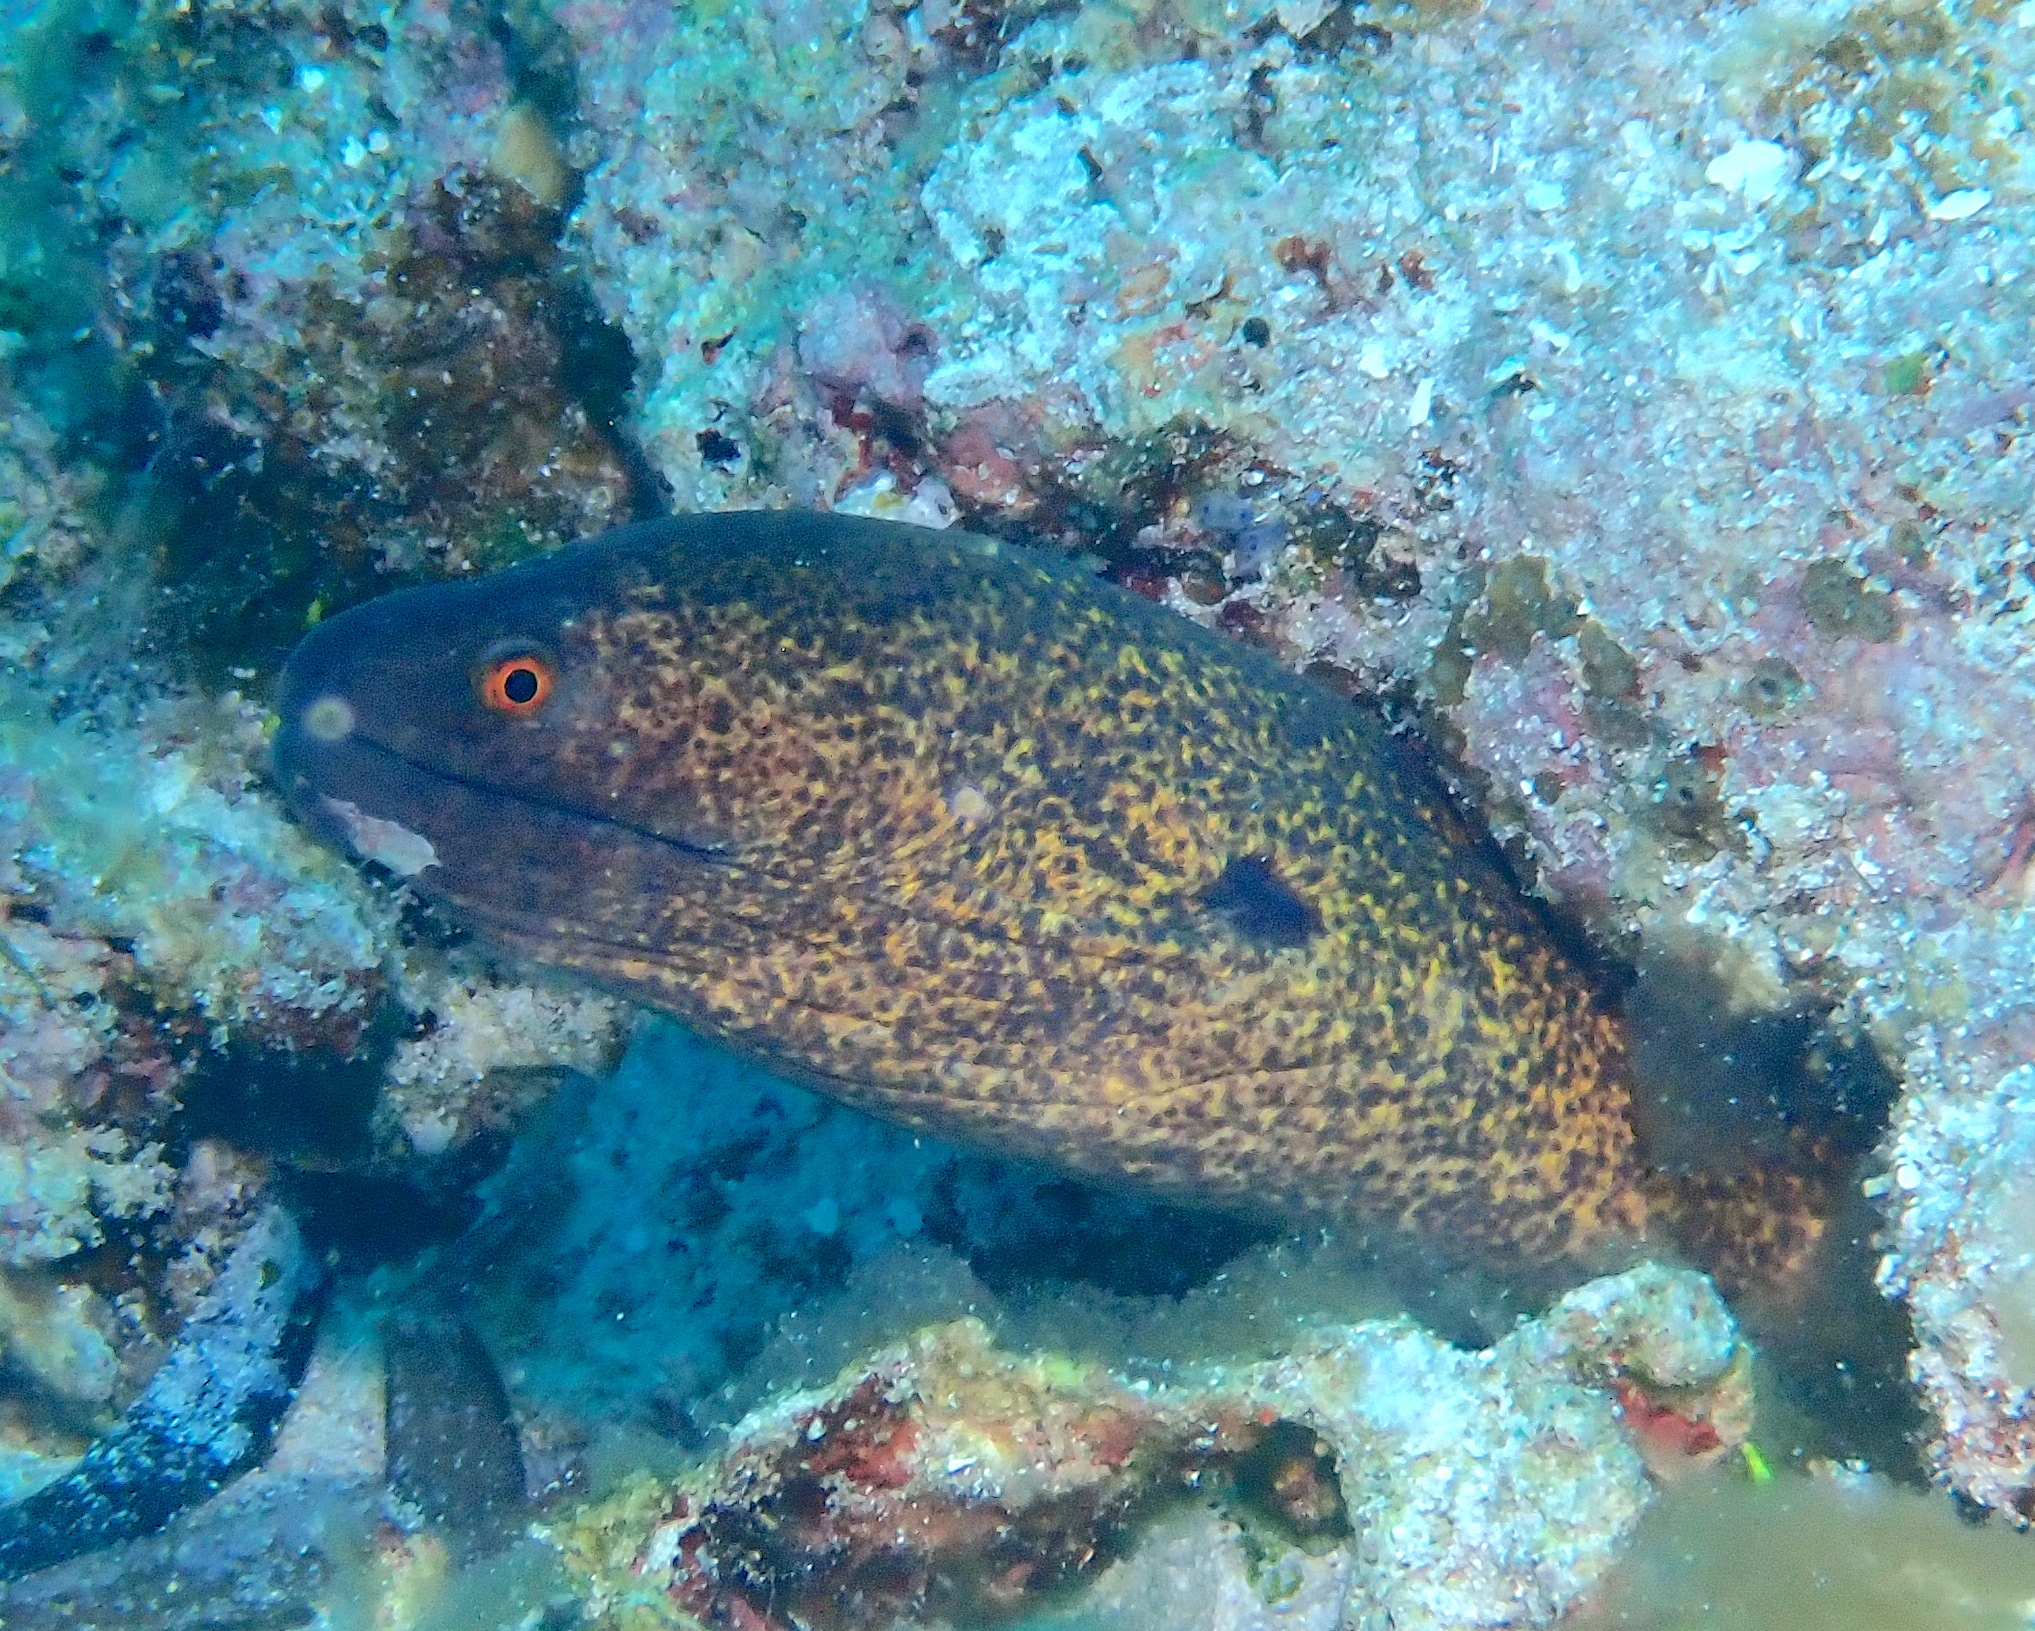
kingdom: Animalia
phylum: Chordata
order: Anguilliformes
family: Muraenidae
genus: Gymnothorax
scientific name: Gymnothorax flavimarginatus
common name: Yellow-edged moray
